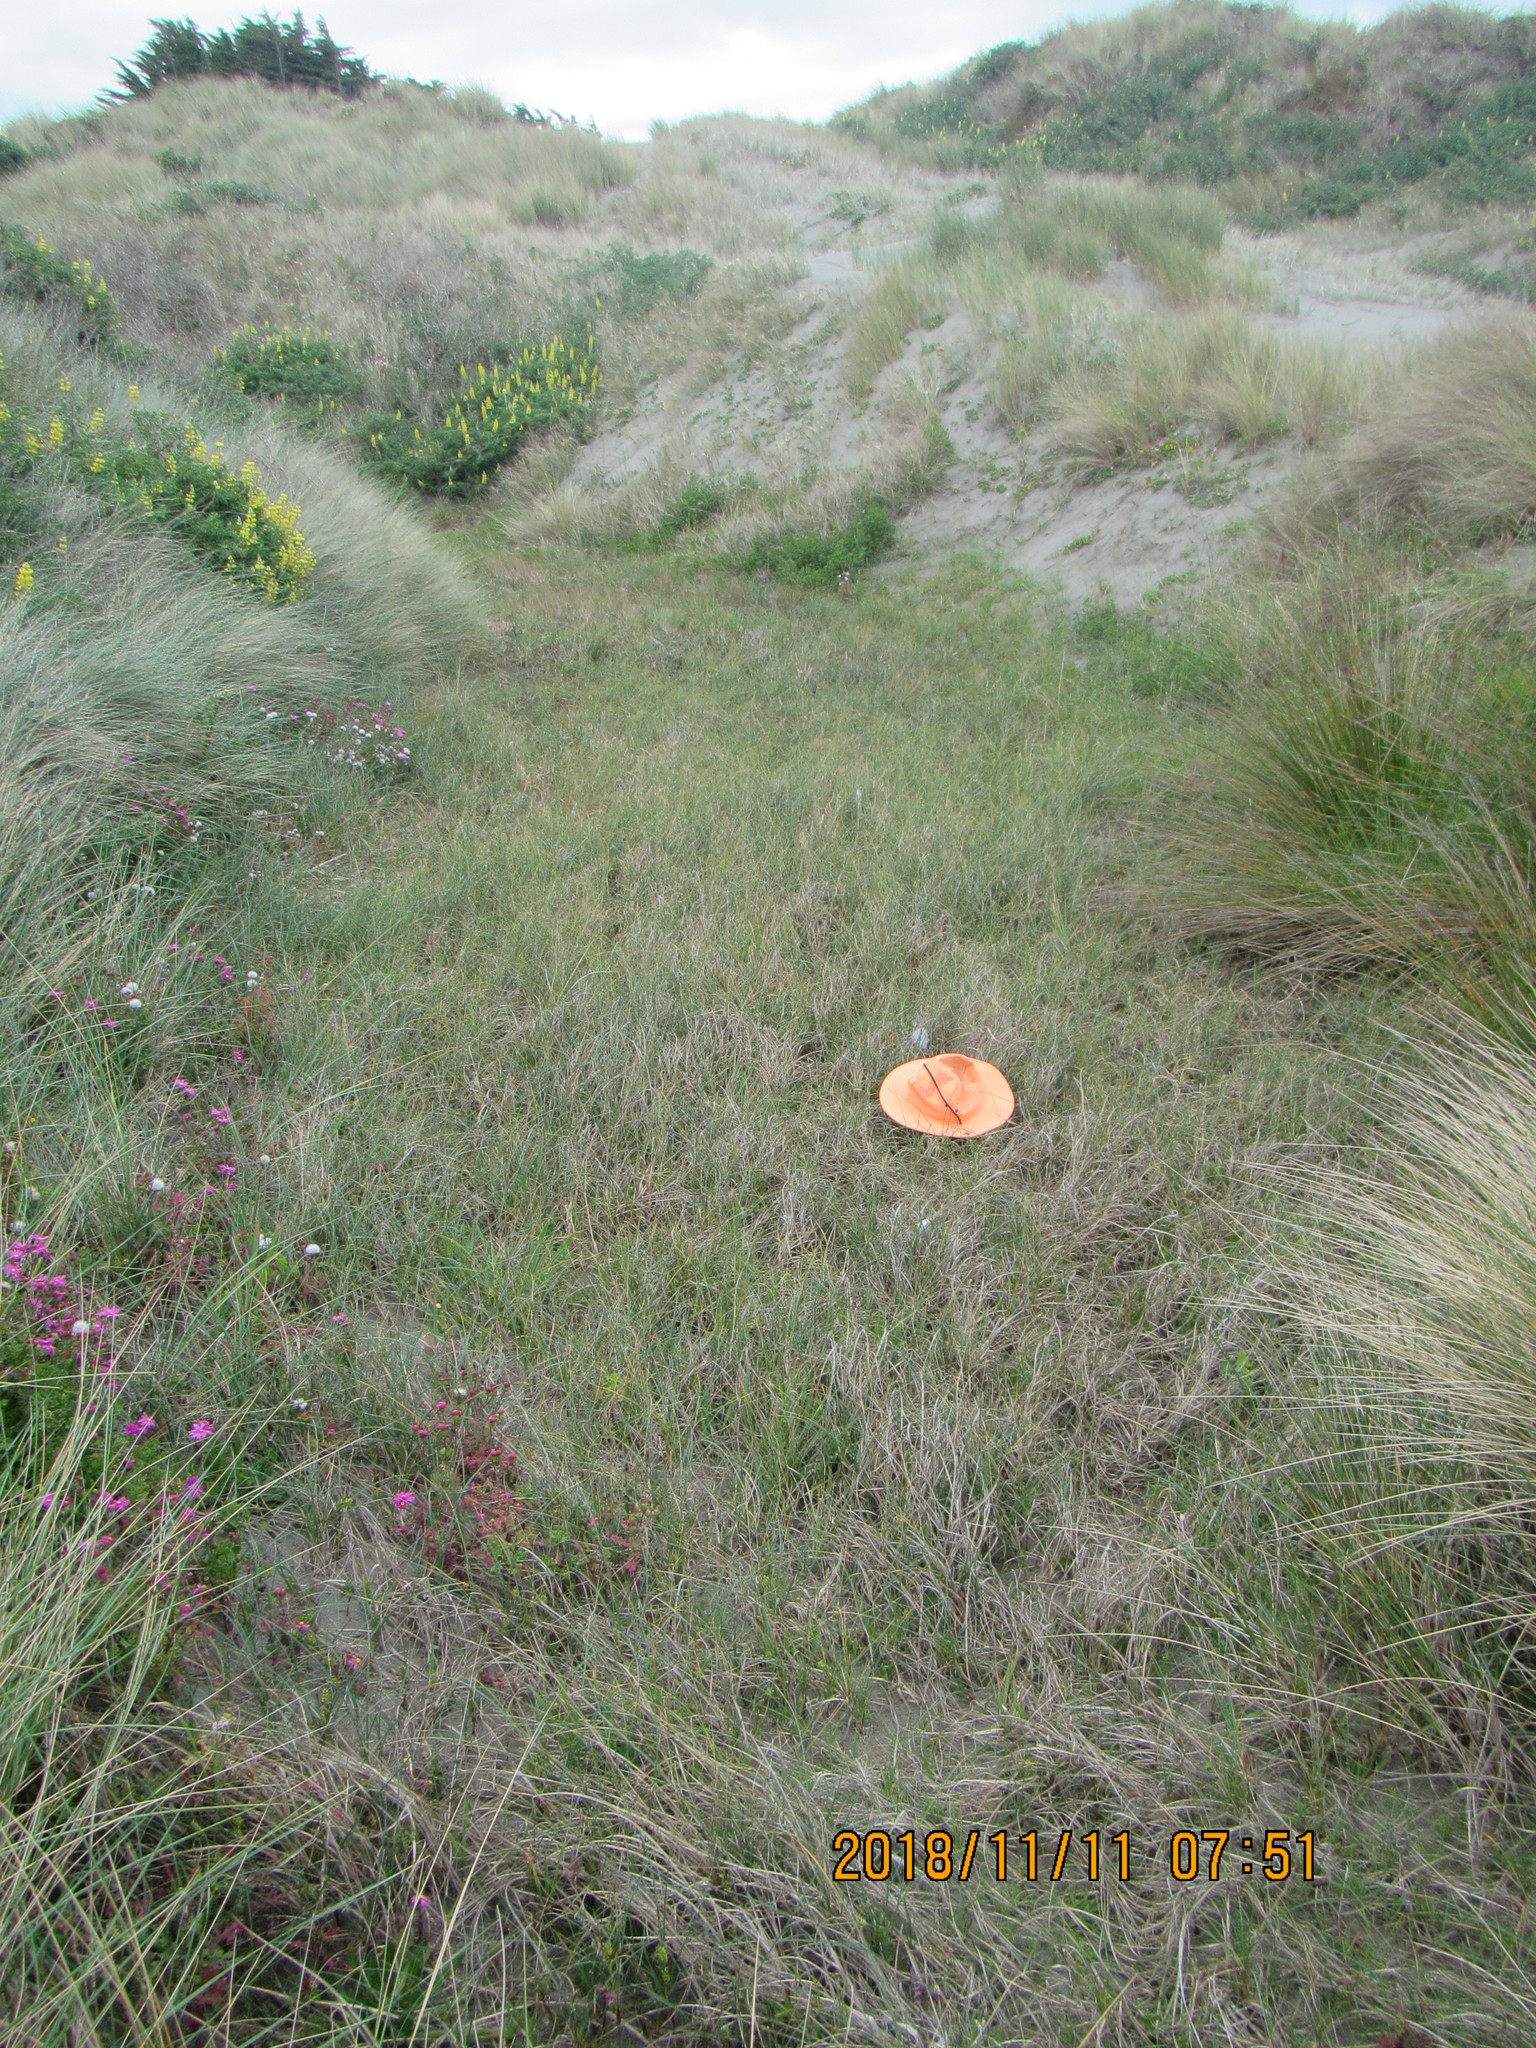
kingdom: Animalia
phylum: Arthropoda
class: Arachnida
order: Araneae
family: Pisauridae
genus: Dolomedes
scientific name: Dolomedes minor
